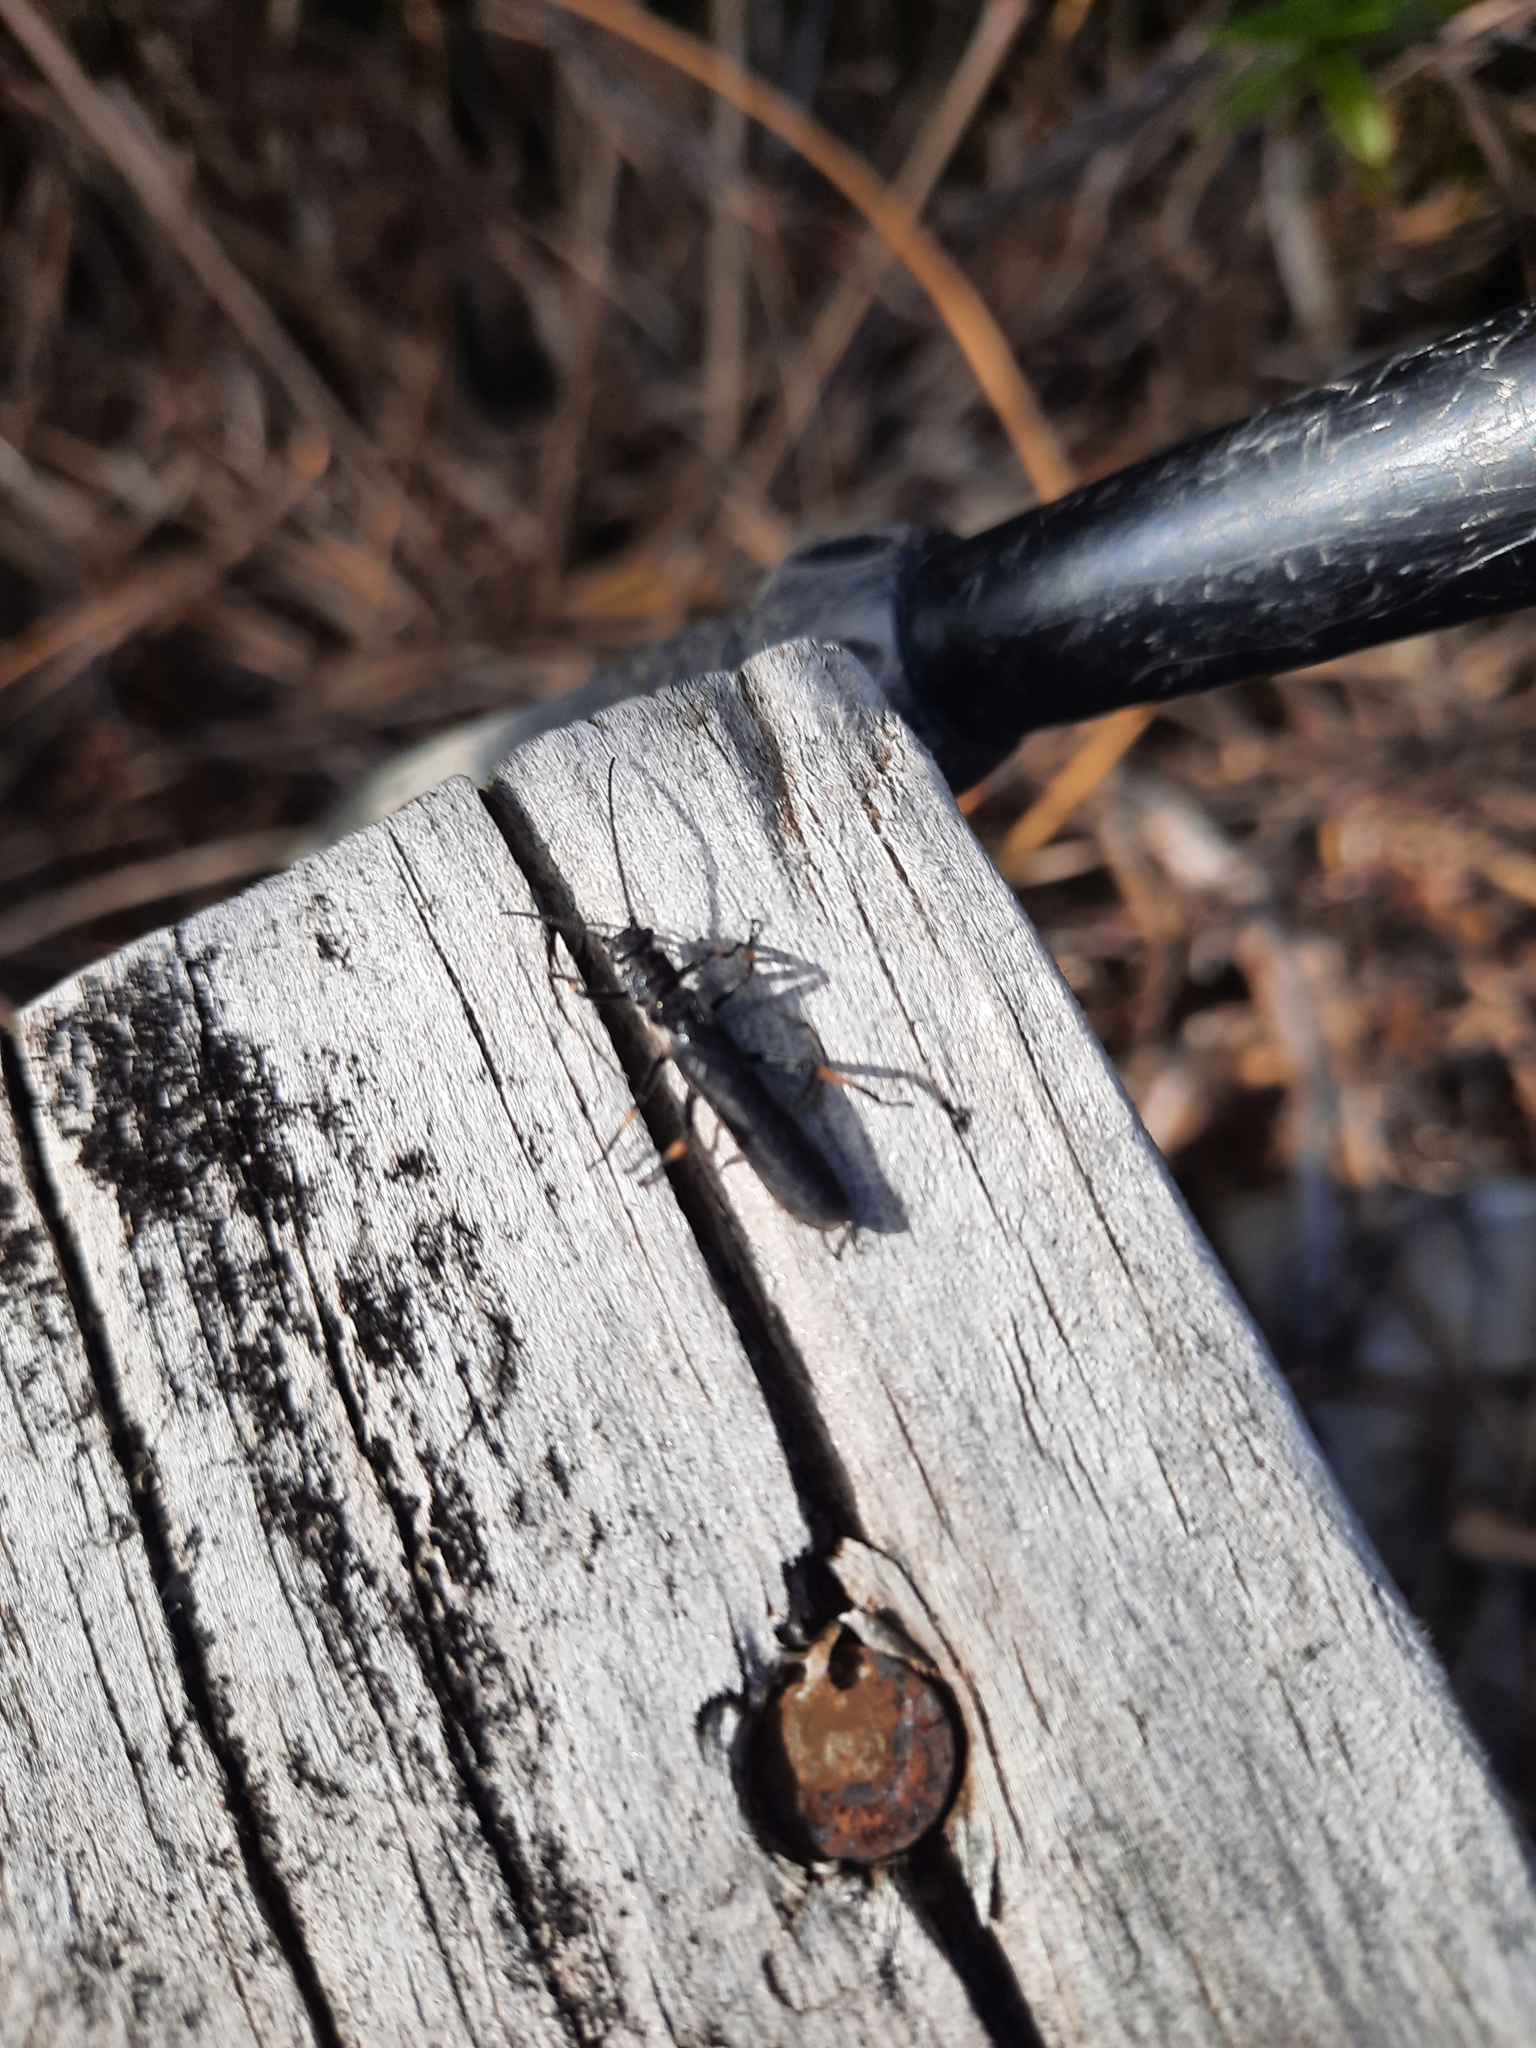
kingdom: Animalia
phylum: Arthropoda
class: Insecta
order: Plecoptera
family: Austroperlidae
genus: Austroperla
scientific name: Austroperla cyrene
